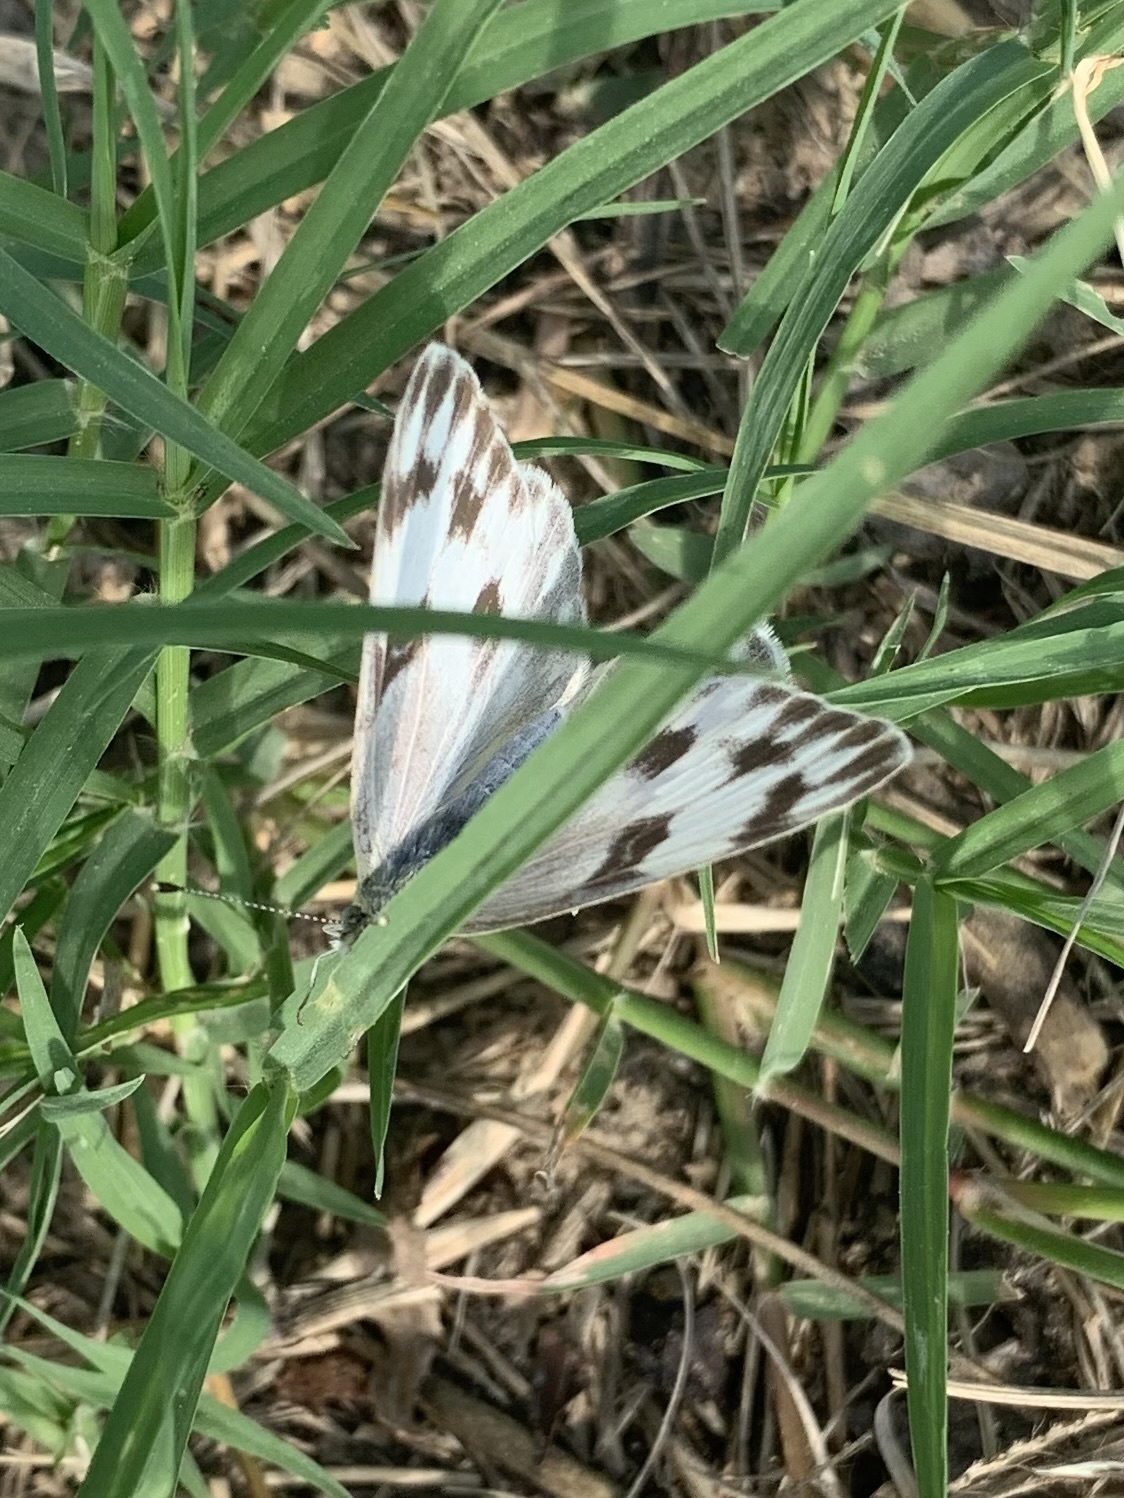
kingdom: Animalia
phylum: Arthropoda
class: Insecta
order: Lepidoptera
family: Pieridae
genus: Pontia
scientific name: Pontia protodice
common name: Checkered white
